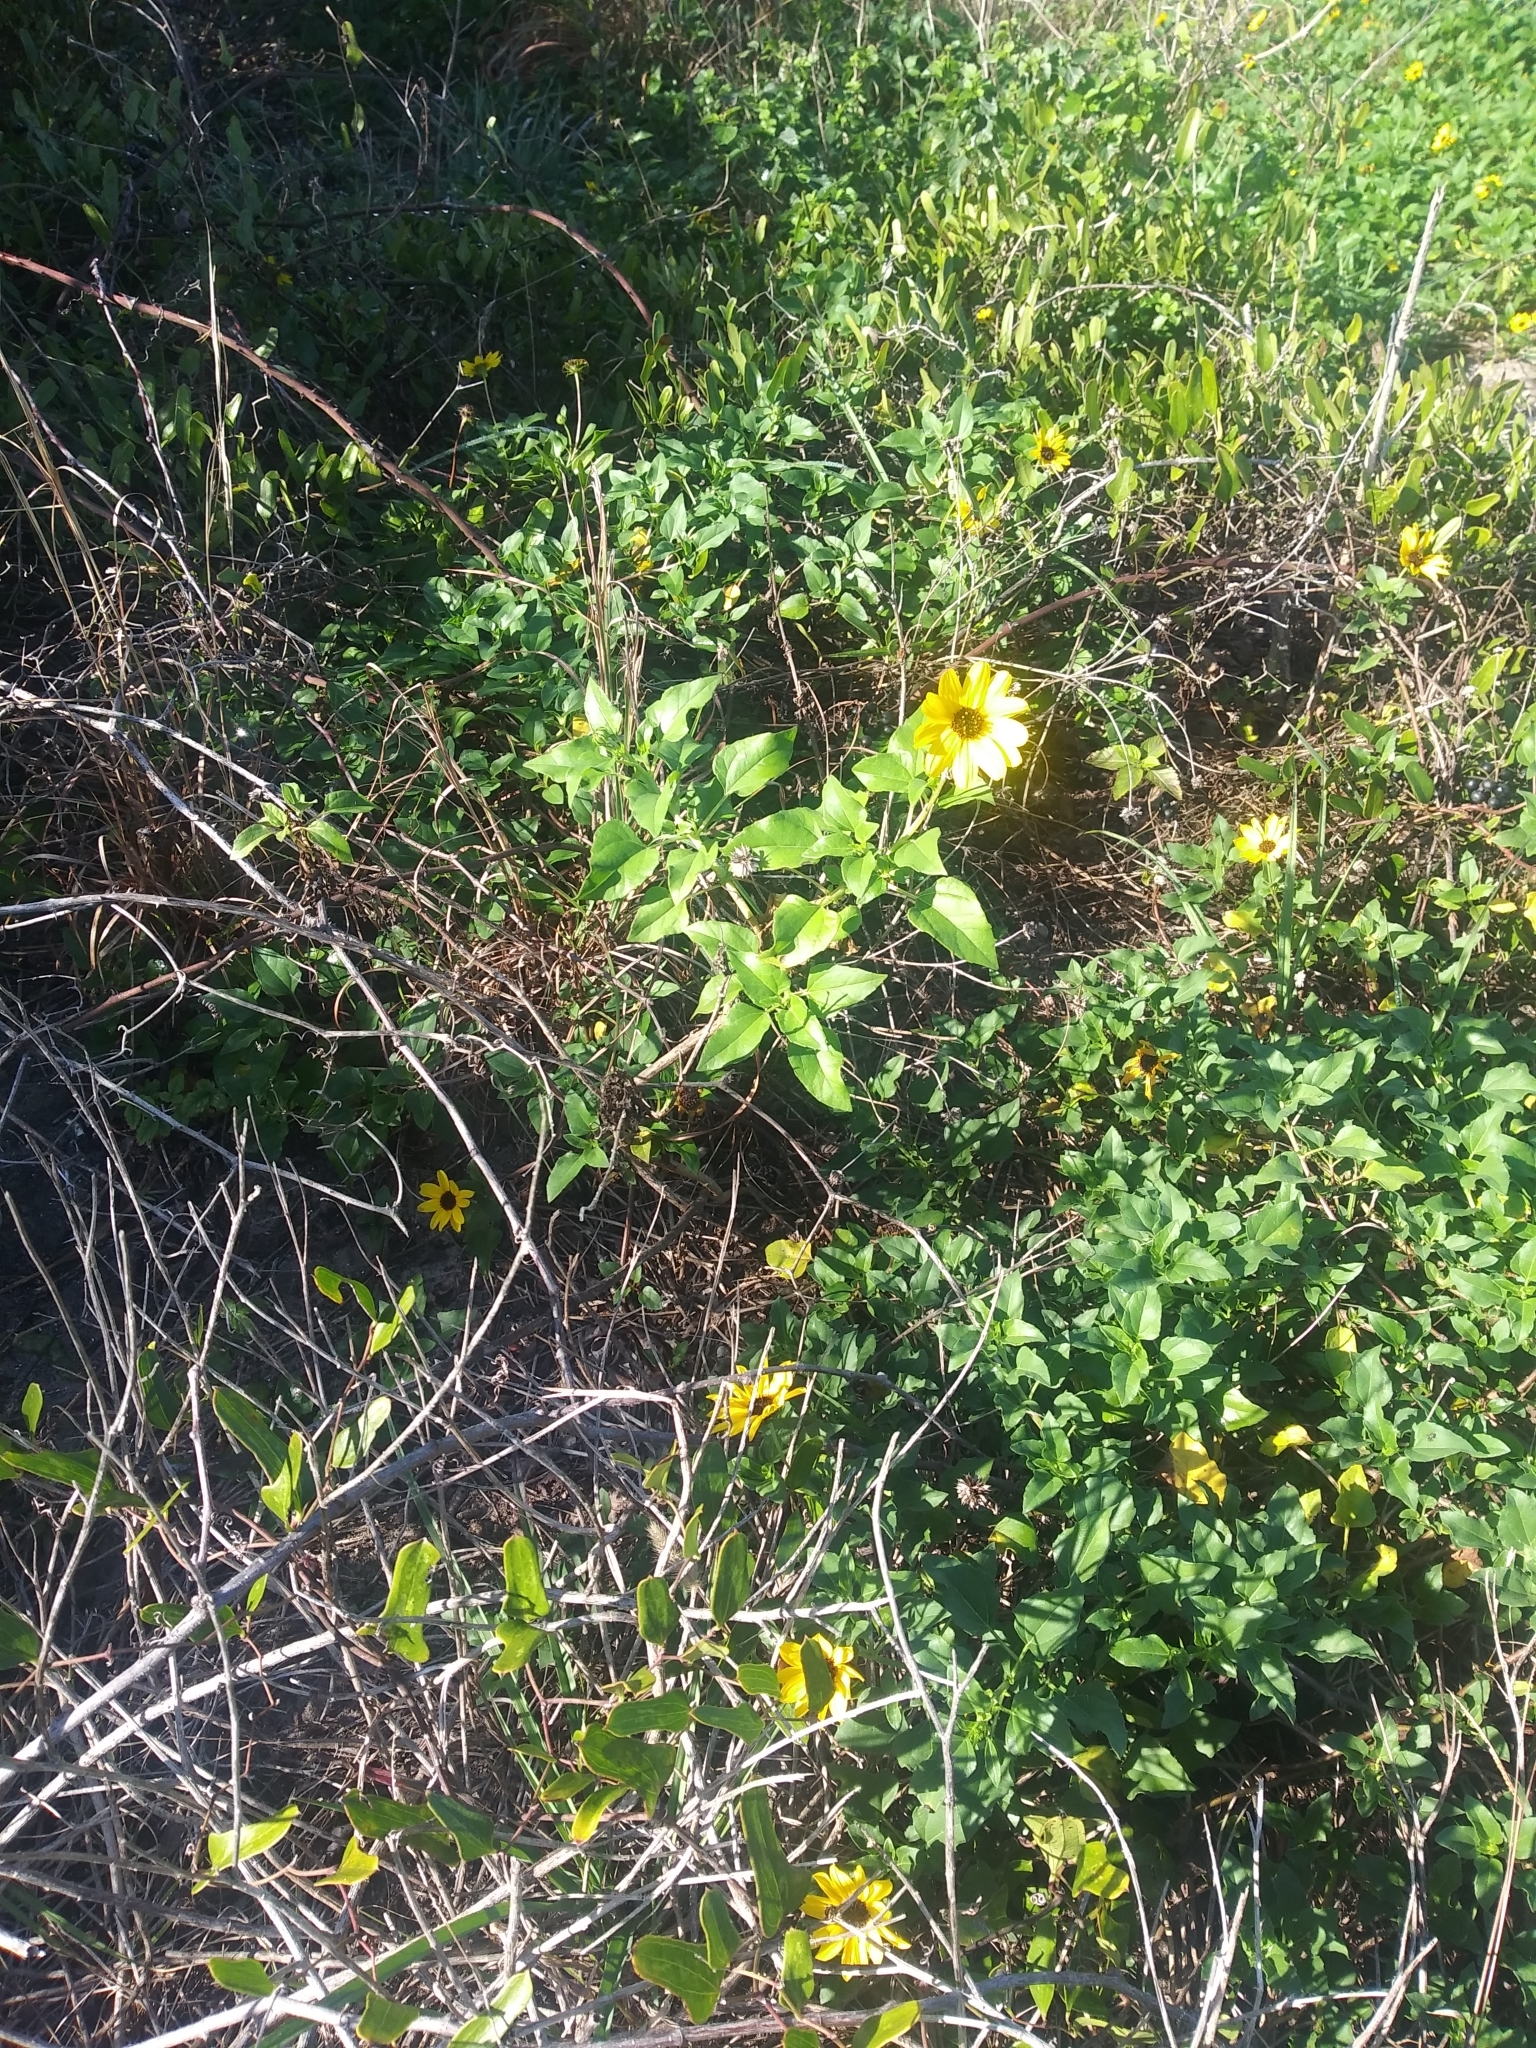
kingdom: Plantae
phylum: Tracheophyta
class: Magnoliopsida
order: Asterales
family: Asteraceae
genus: Helianthus
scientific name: Helianthus debilis
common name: Weak sunflower
